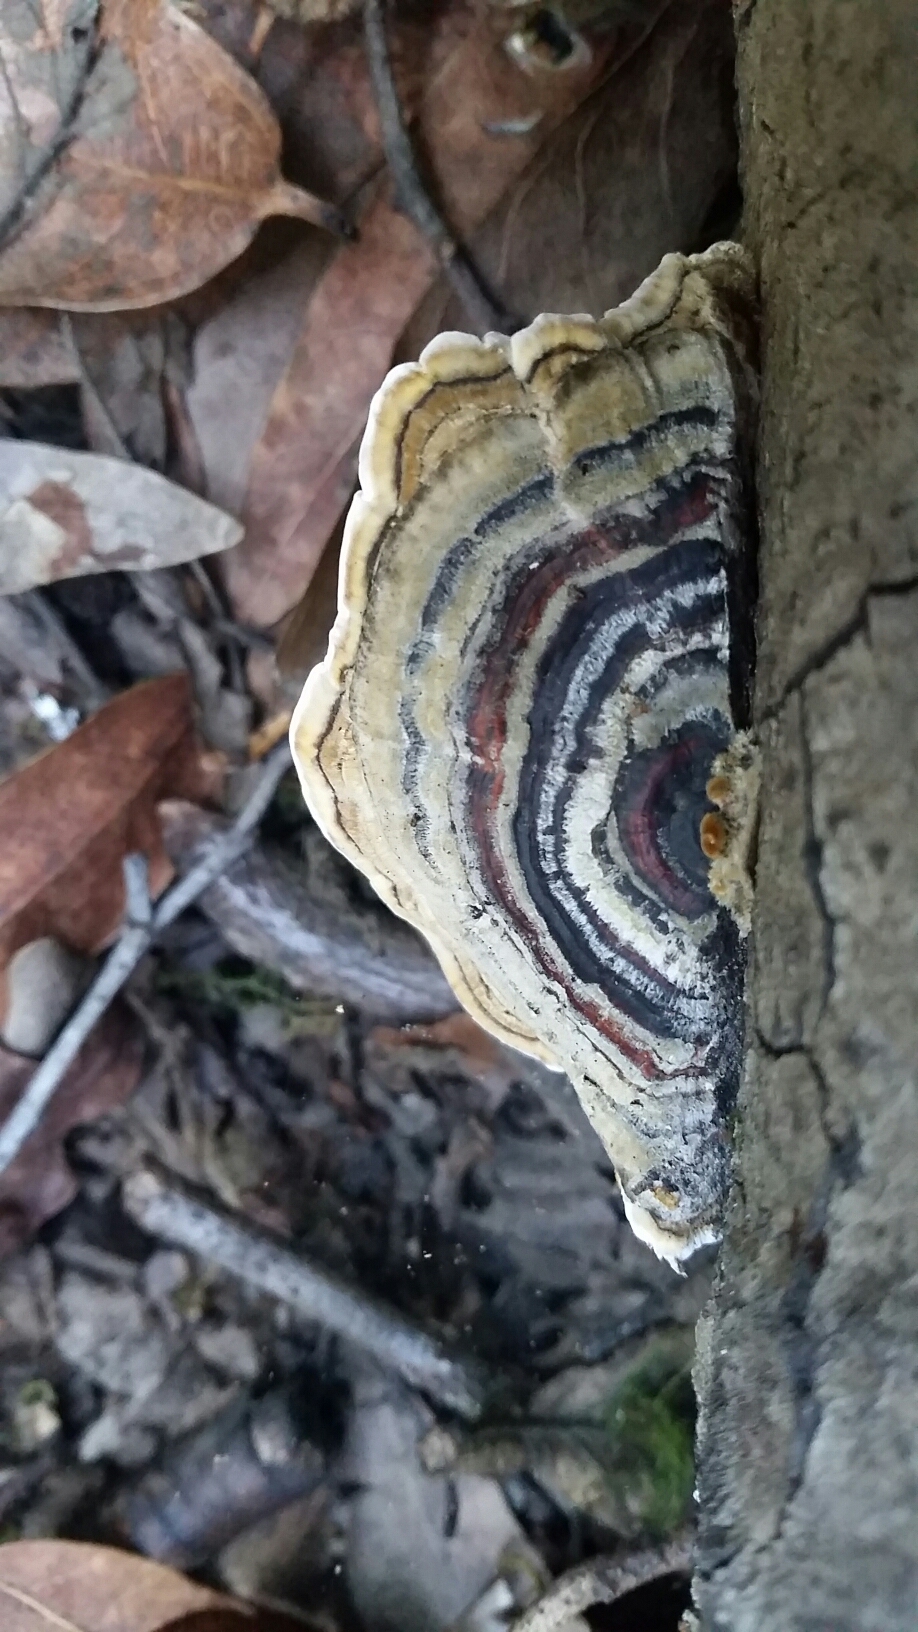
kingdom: Fungi
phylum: Basidiomycota
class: Agaricomycetes
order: Polyporales
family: Polyporaceae
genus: Trametes
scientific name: Trametes versicolor
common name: Turkeytail
